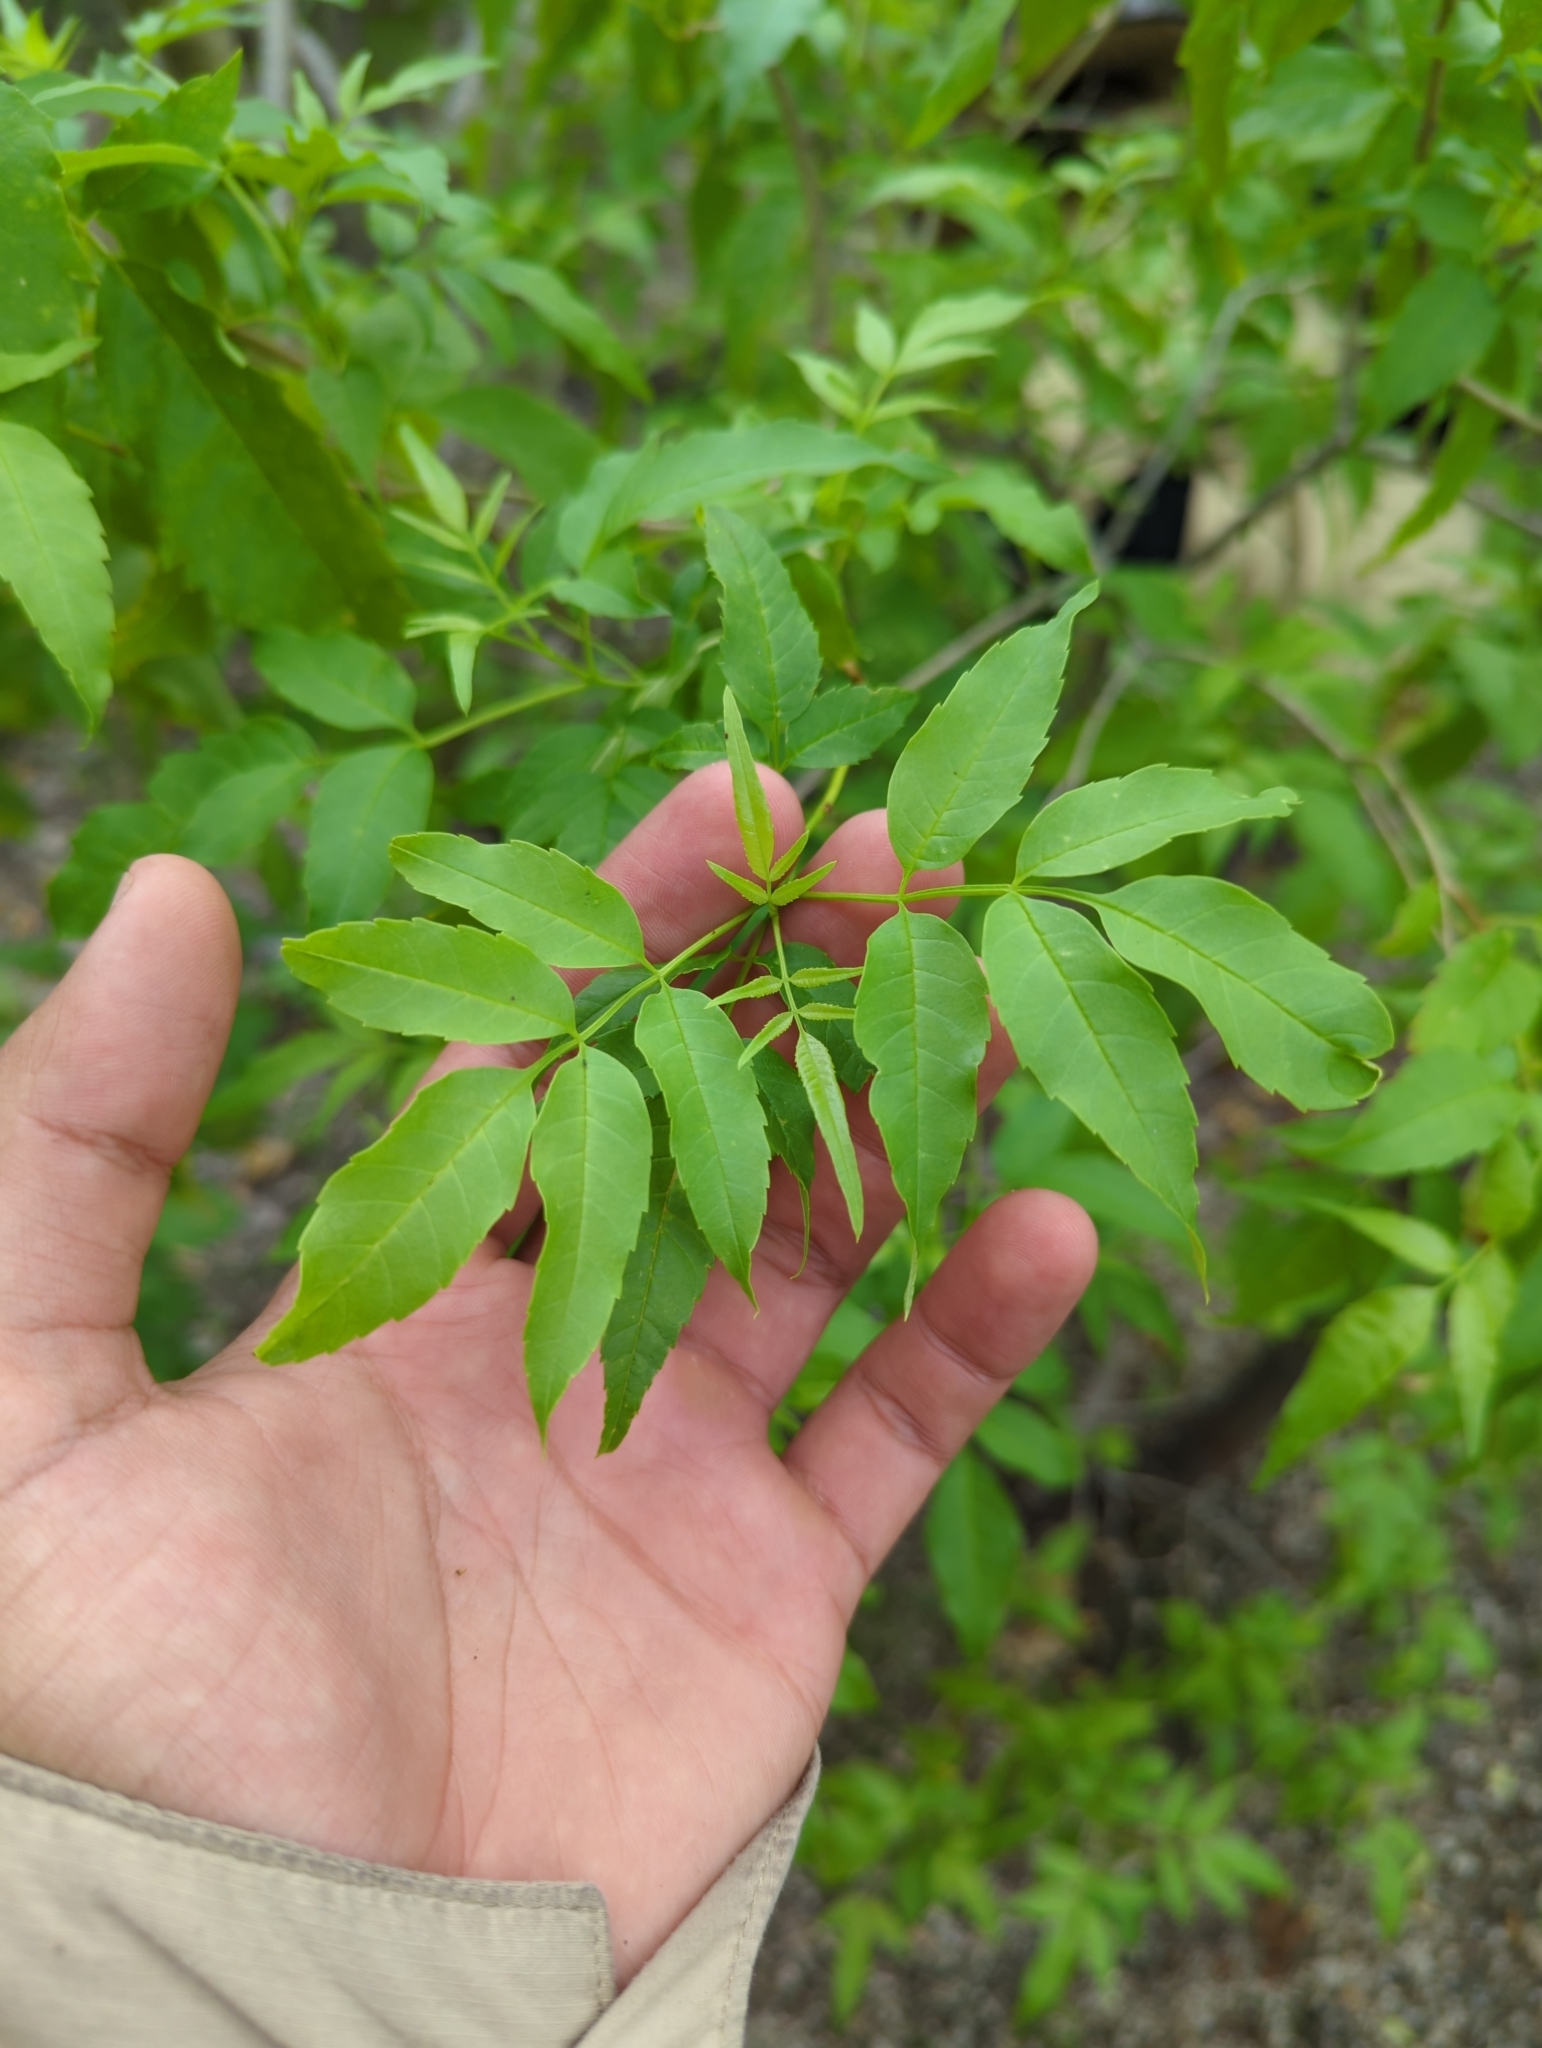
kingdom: Plantae
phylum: Tracheophyta
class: Magnoliopsida
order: Lamiales
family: Bignoniaceae
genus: Tecoma
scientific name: Tecoma stans
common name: Yellow trumpetbush
